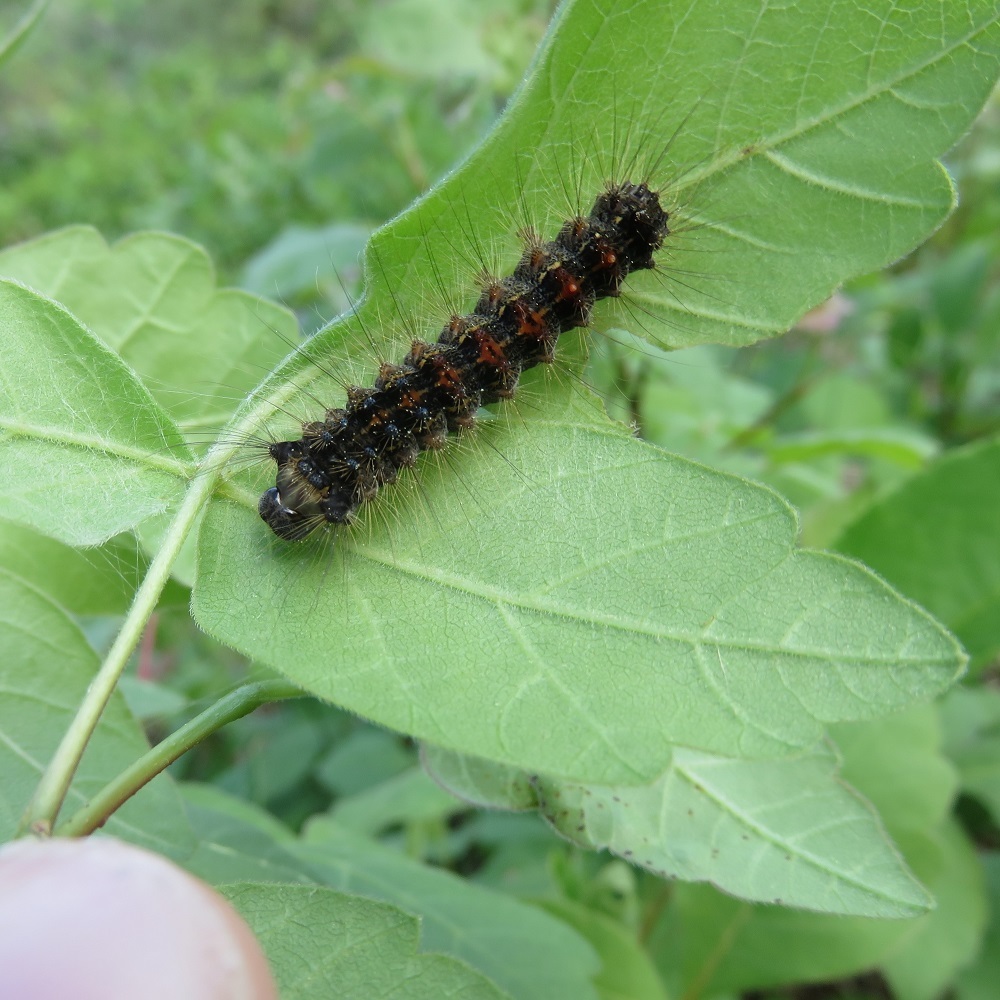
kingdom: Animalia
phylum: Arthropoda
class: Insecta
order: Lepidoptera
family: Erebidae
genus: Lymantria
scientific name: Lymantria dispar
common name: Gypsy moth
